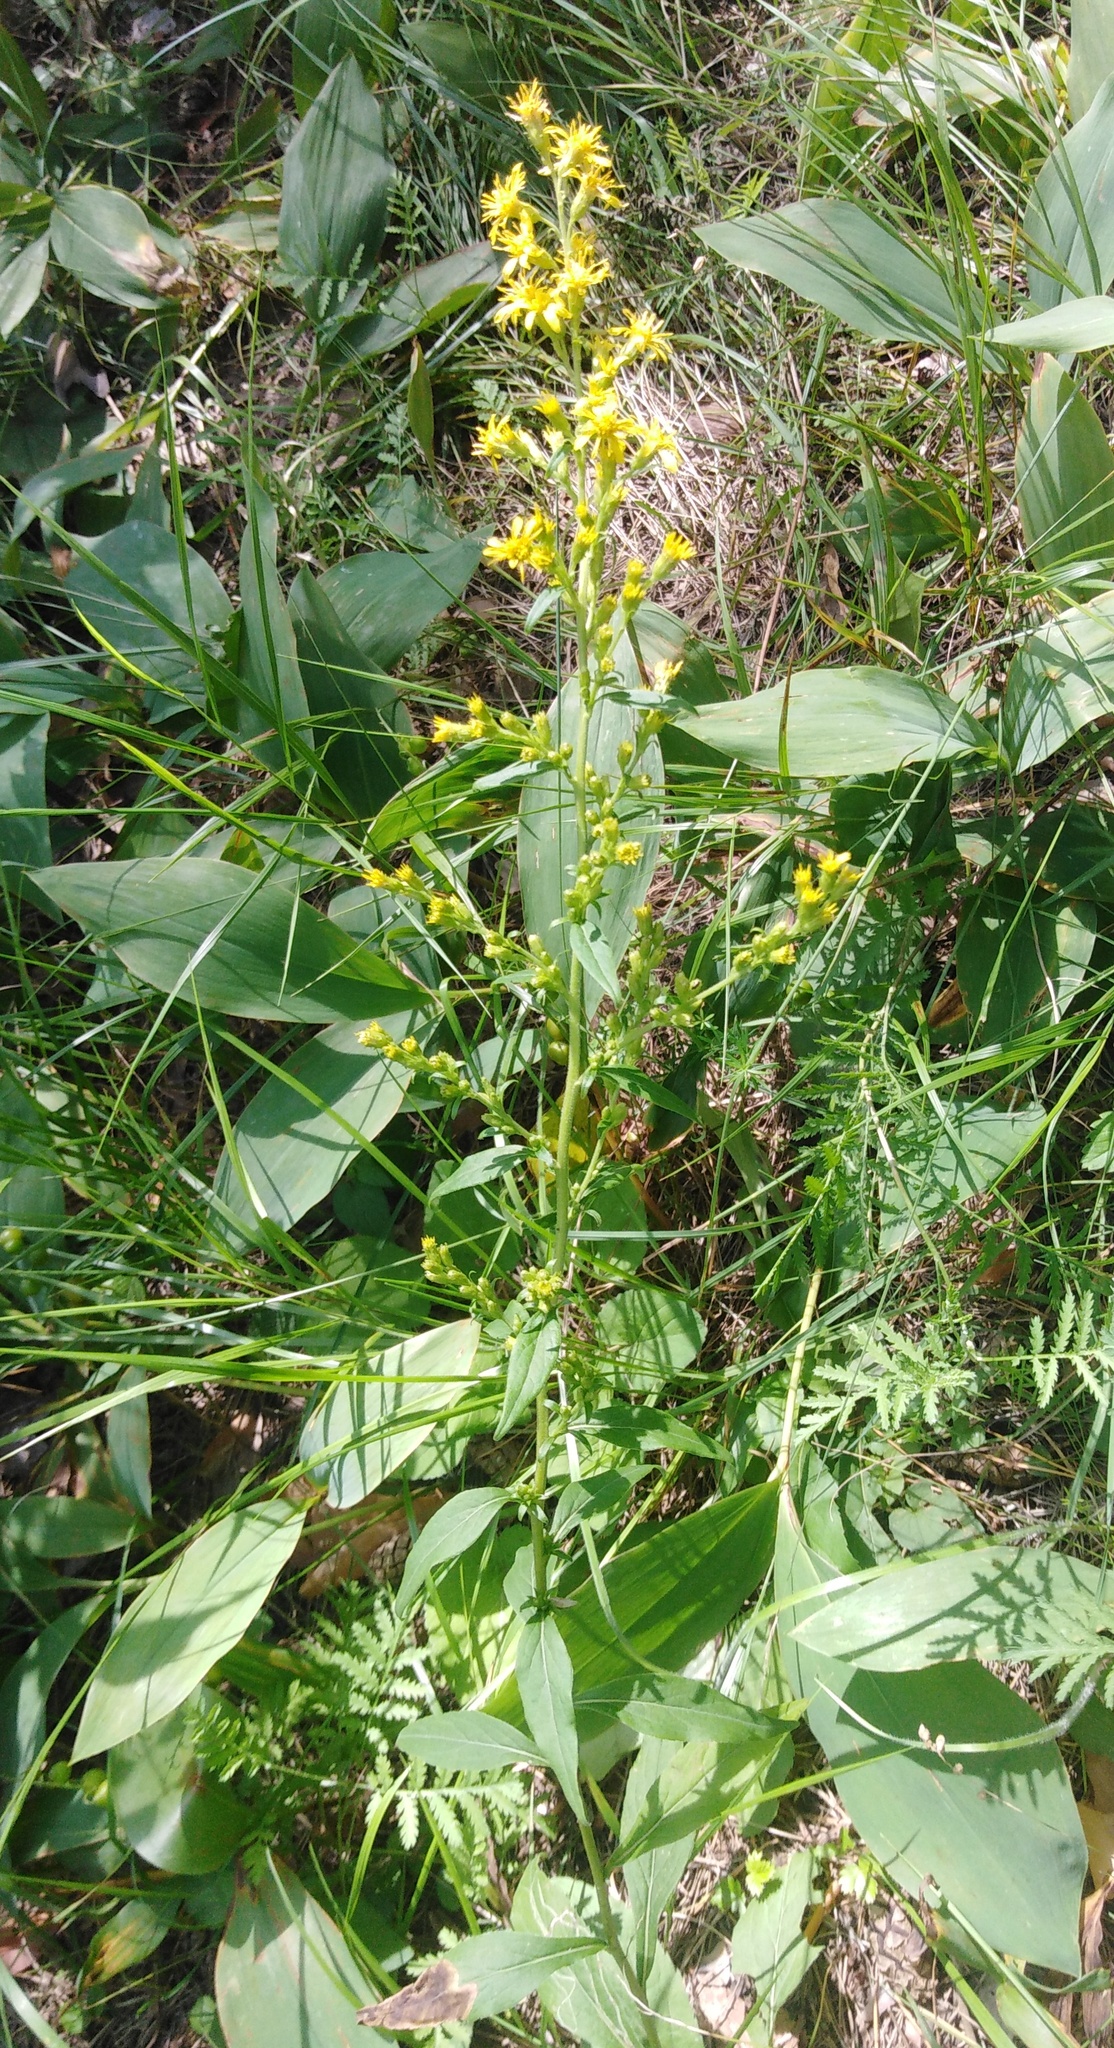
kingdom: Plantae
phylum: Tracheophyta
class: Magnoliopsida
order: Asterales
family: Asteraceae
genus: Solidago
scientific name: Solidago virgaurea
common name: Goldenrod
